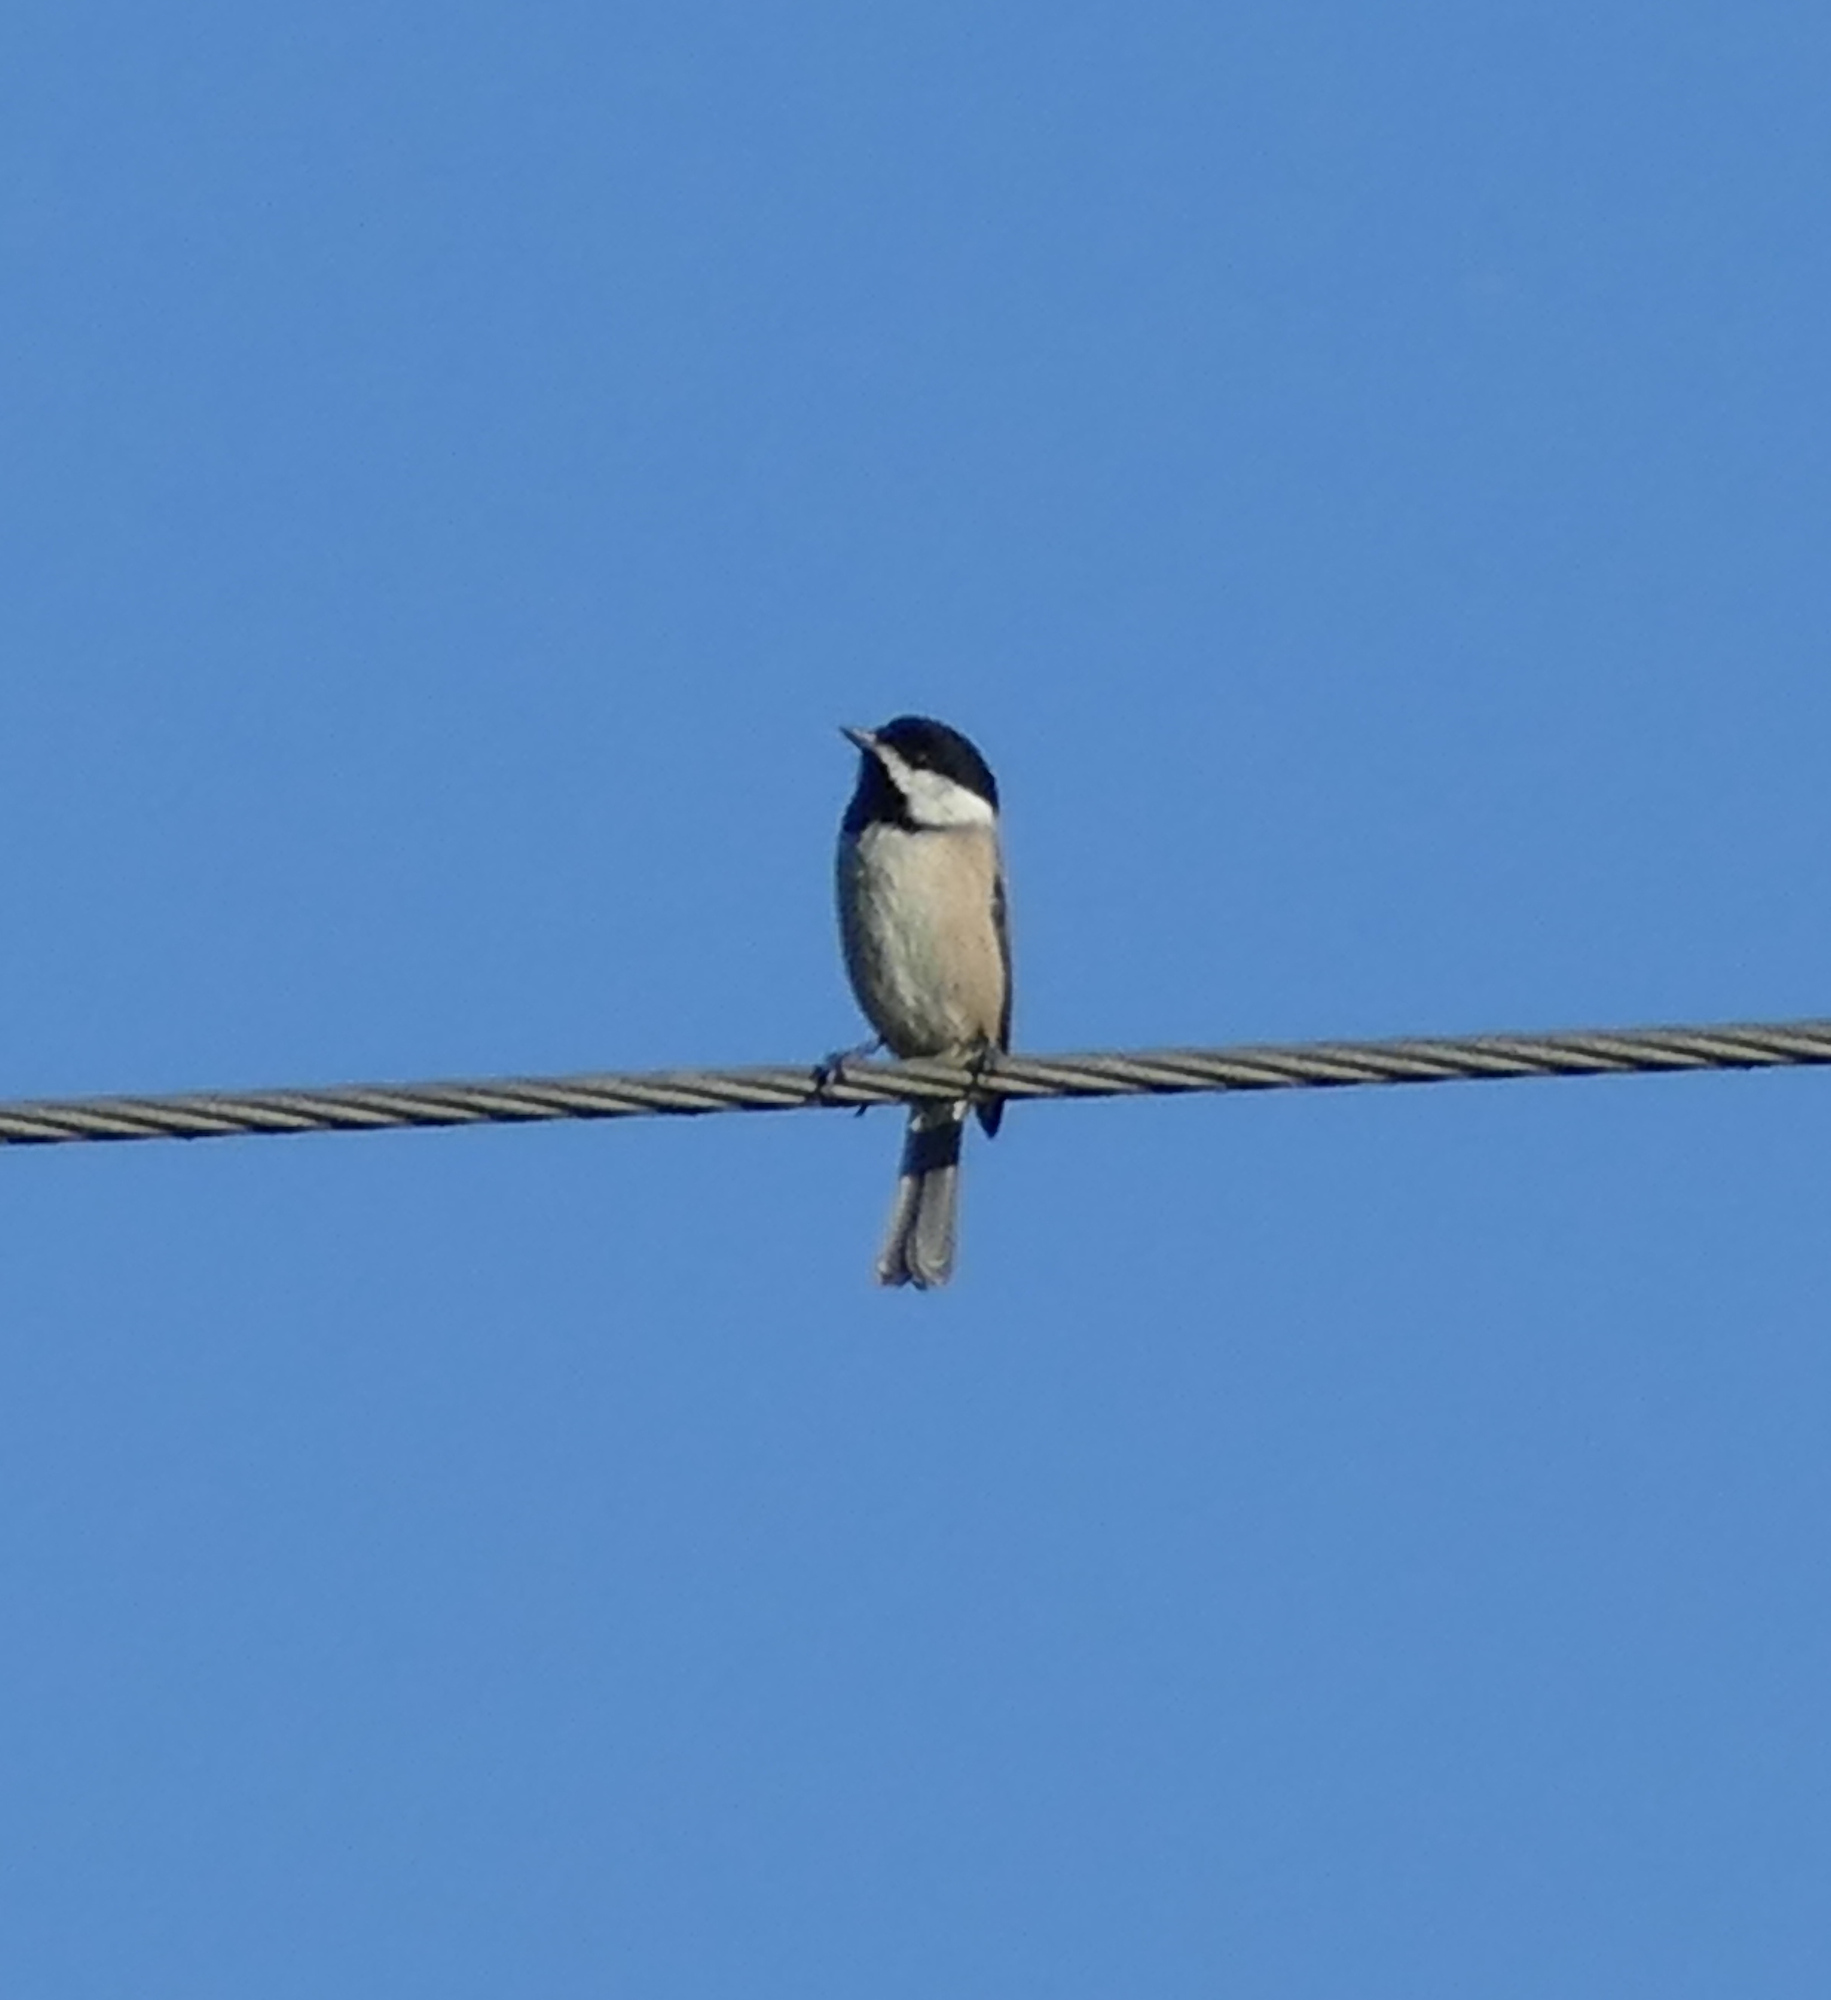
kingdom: Animalia
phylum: Chordata
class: Aves
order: Passeriformes
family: Paridae
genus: Poecile
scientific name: Poecile carolinensis
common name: Carolina chickadee
